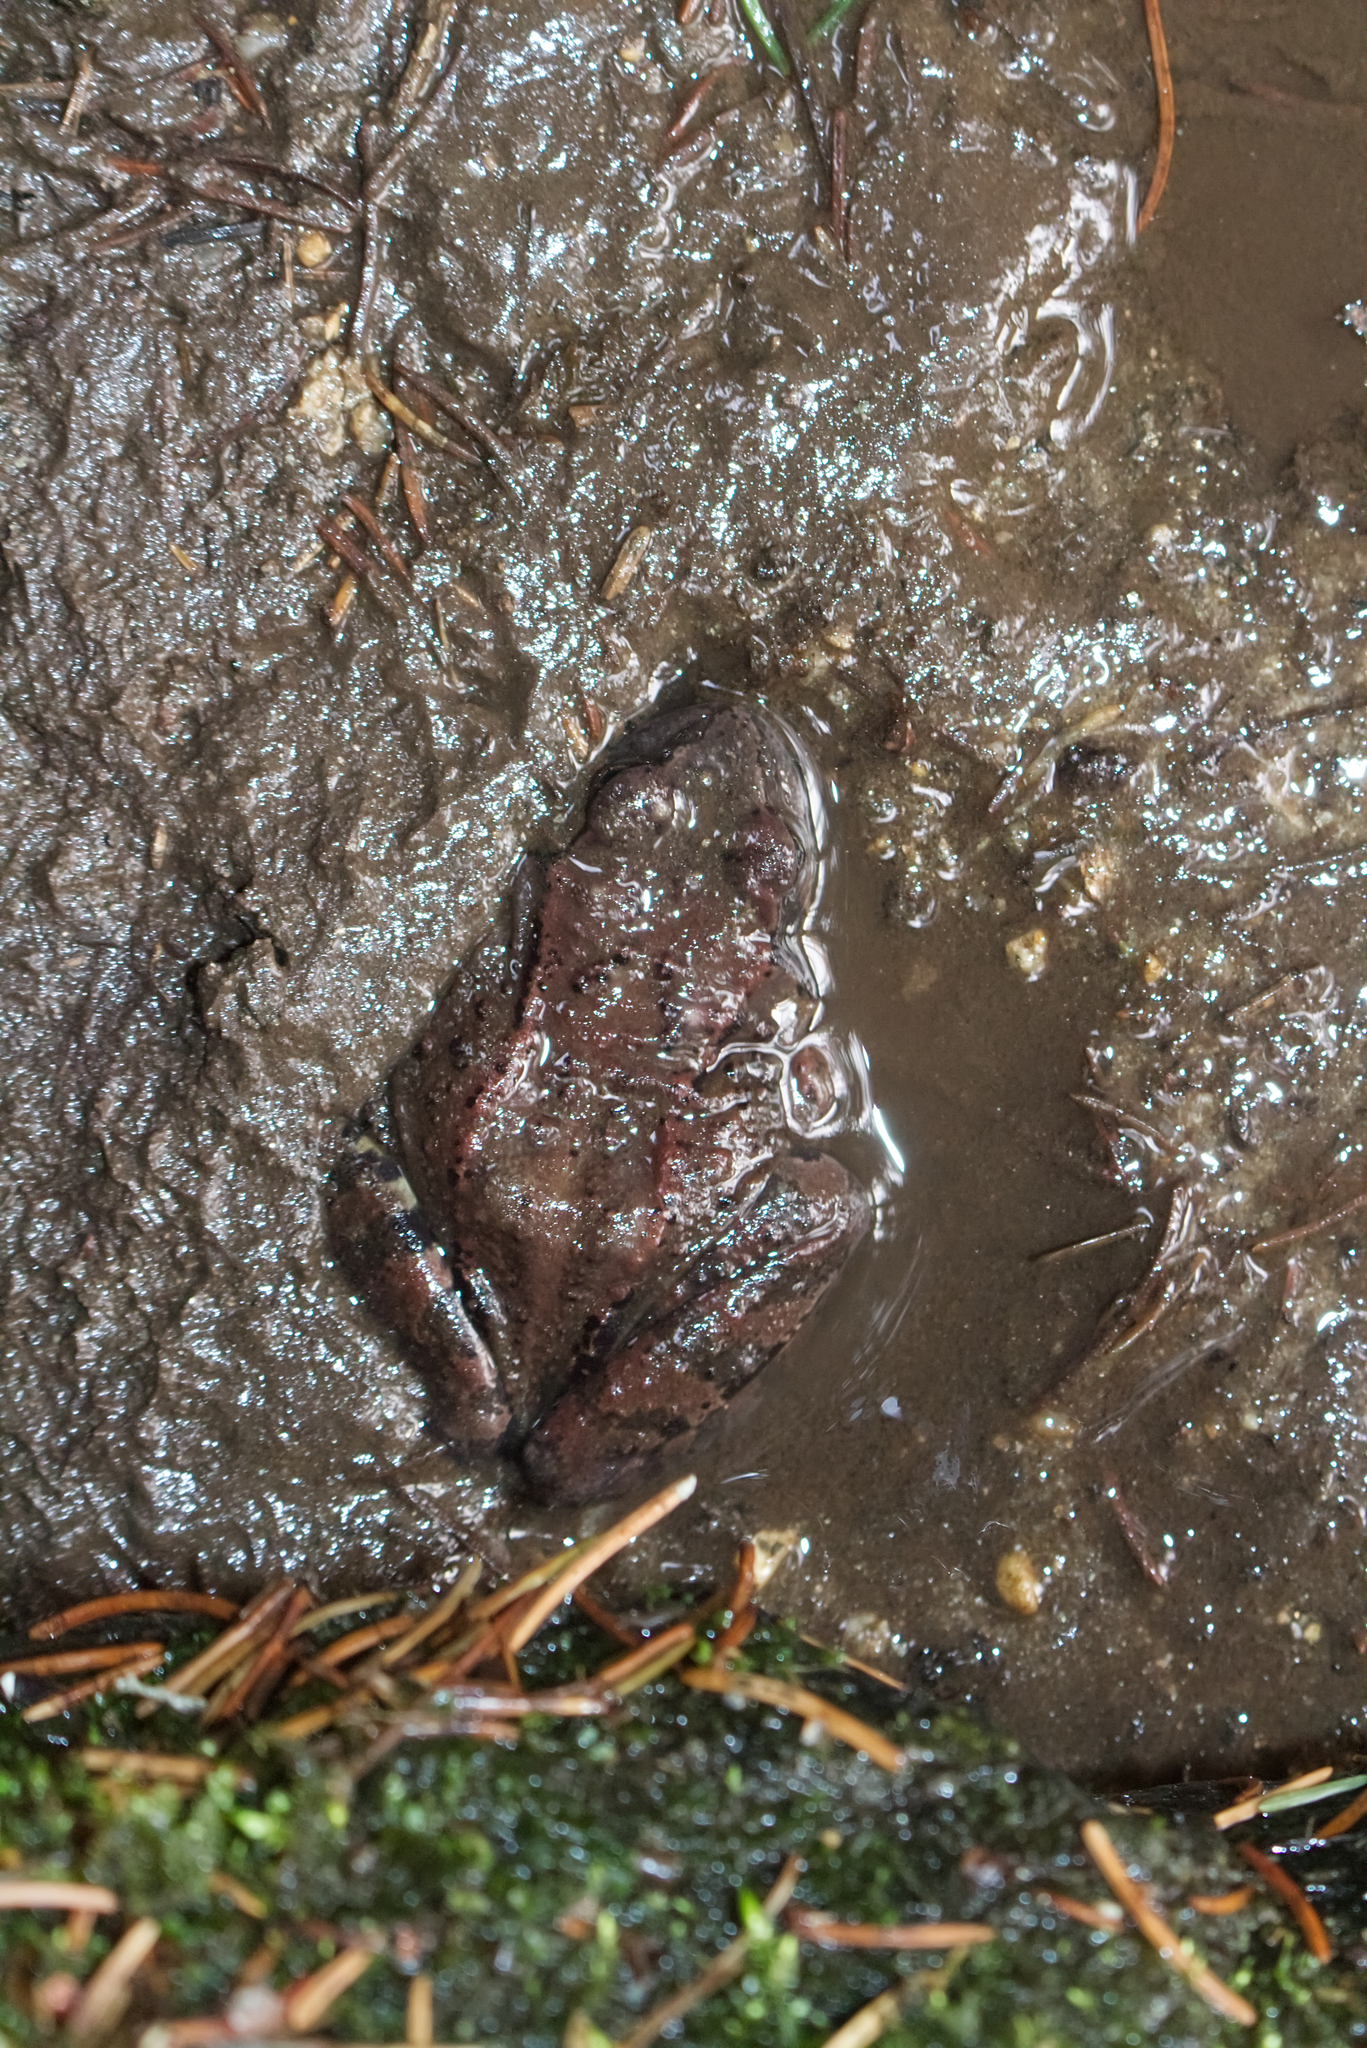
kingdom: Animalia
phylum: Chordata
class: Amphibia
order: Anura
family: Ranidae
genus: Rana
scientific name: Rana temporaria
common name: Common frog
